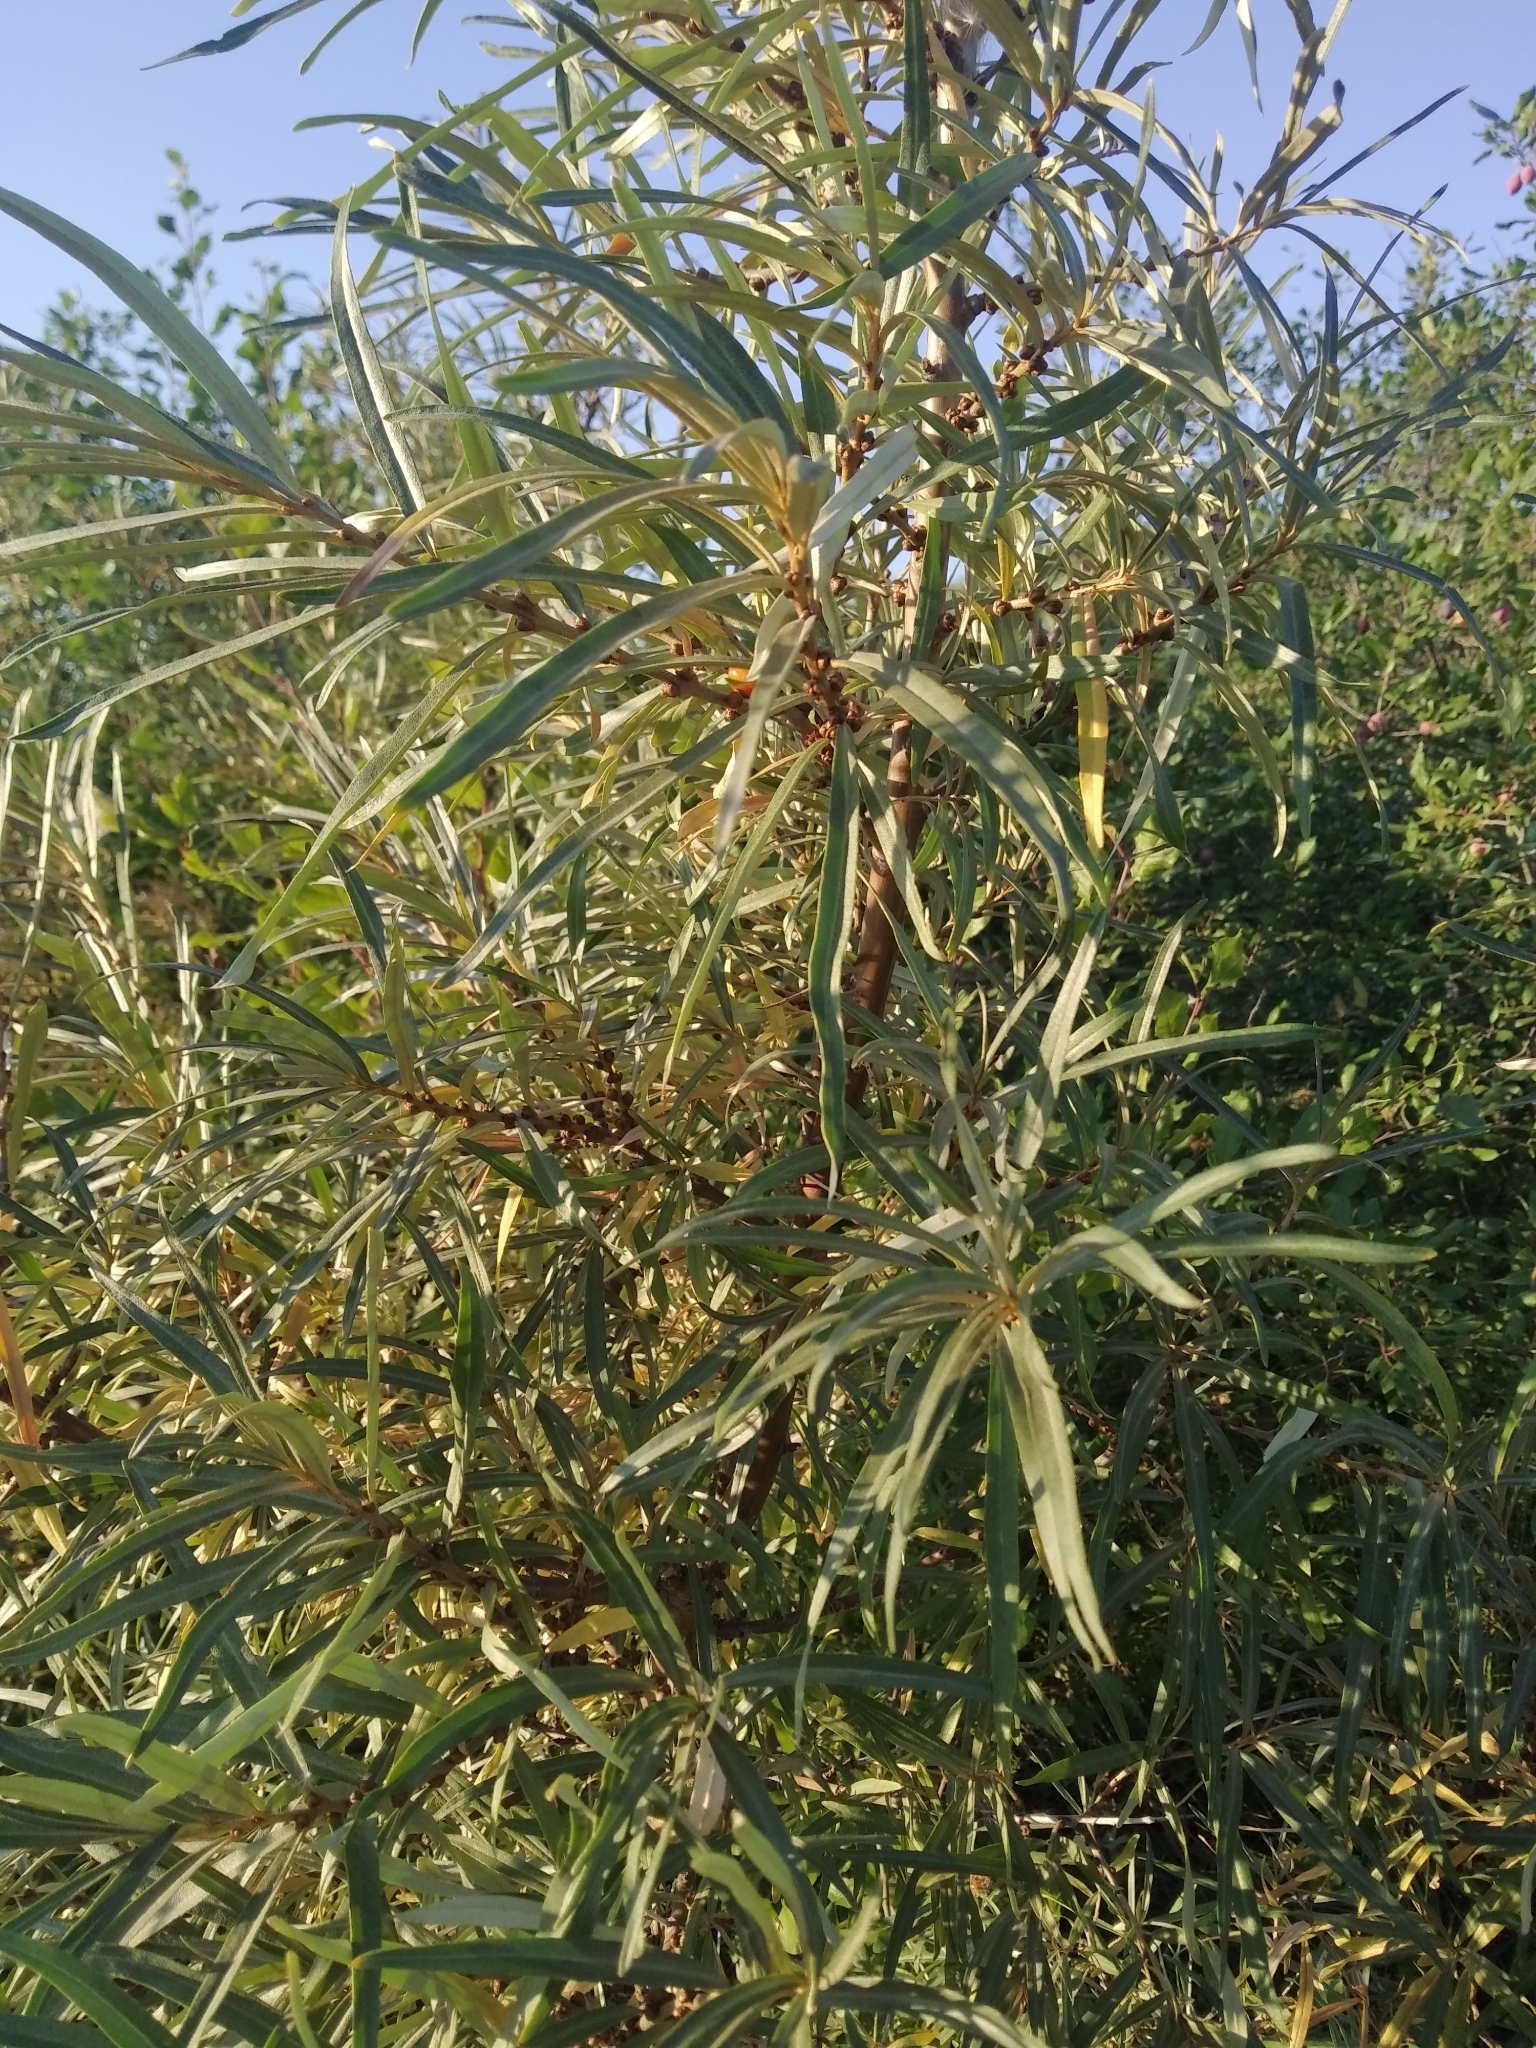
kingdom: Plantae
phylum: Tracheophyta
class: Magnoliopsida
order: Rosales
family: Elaeagnaceae
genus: Hippophae
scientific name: Hippophae rhamnoides
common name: Sea-buckthorn
